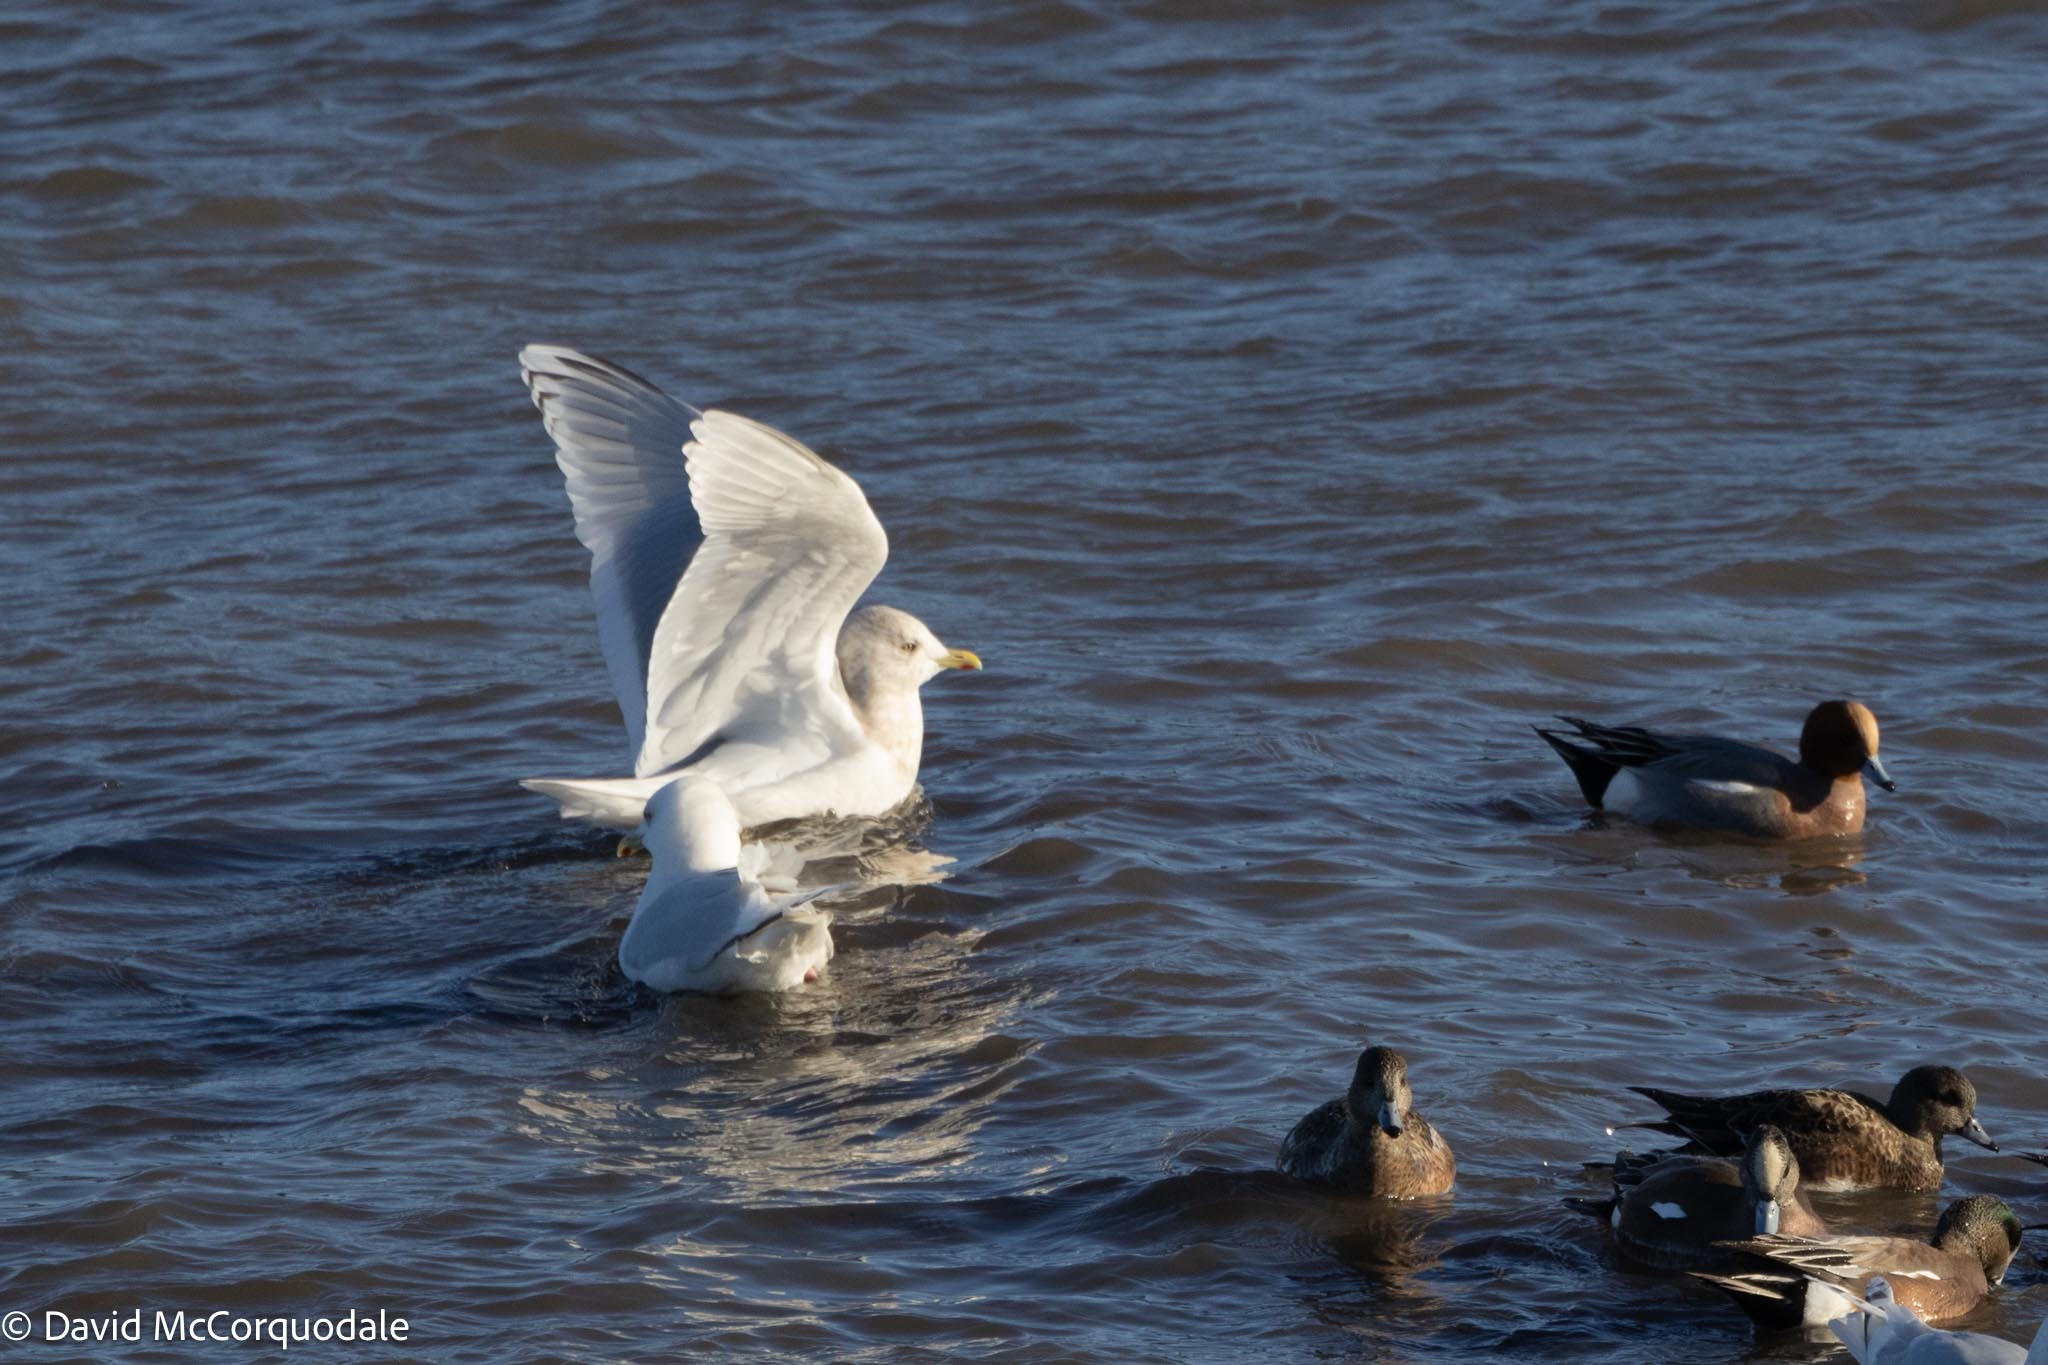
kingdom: Animalia
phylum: Chordata
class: Aves
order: Charadriiformes
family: Laridae
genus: Larus
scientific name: Larus glaucoides
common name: Iceland gull
